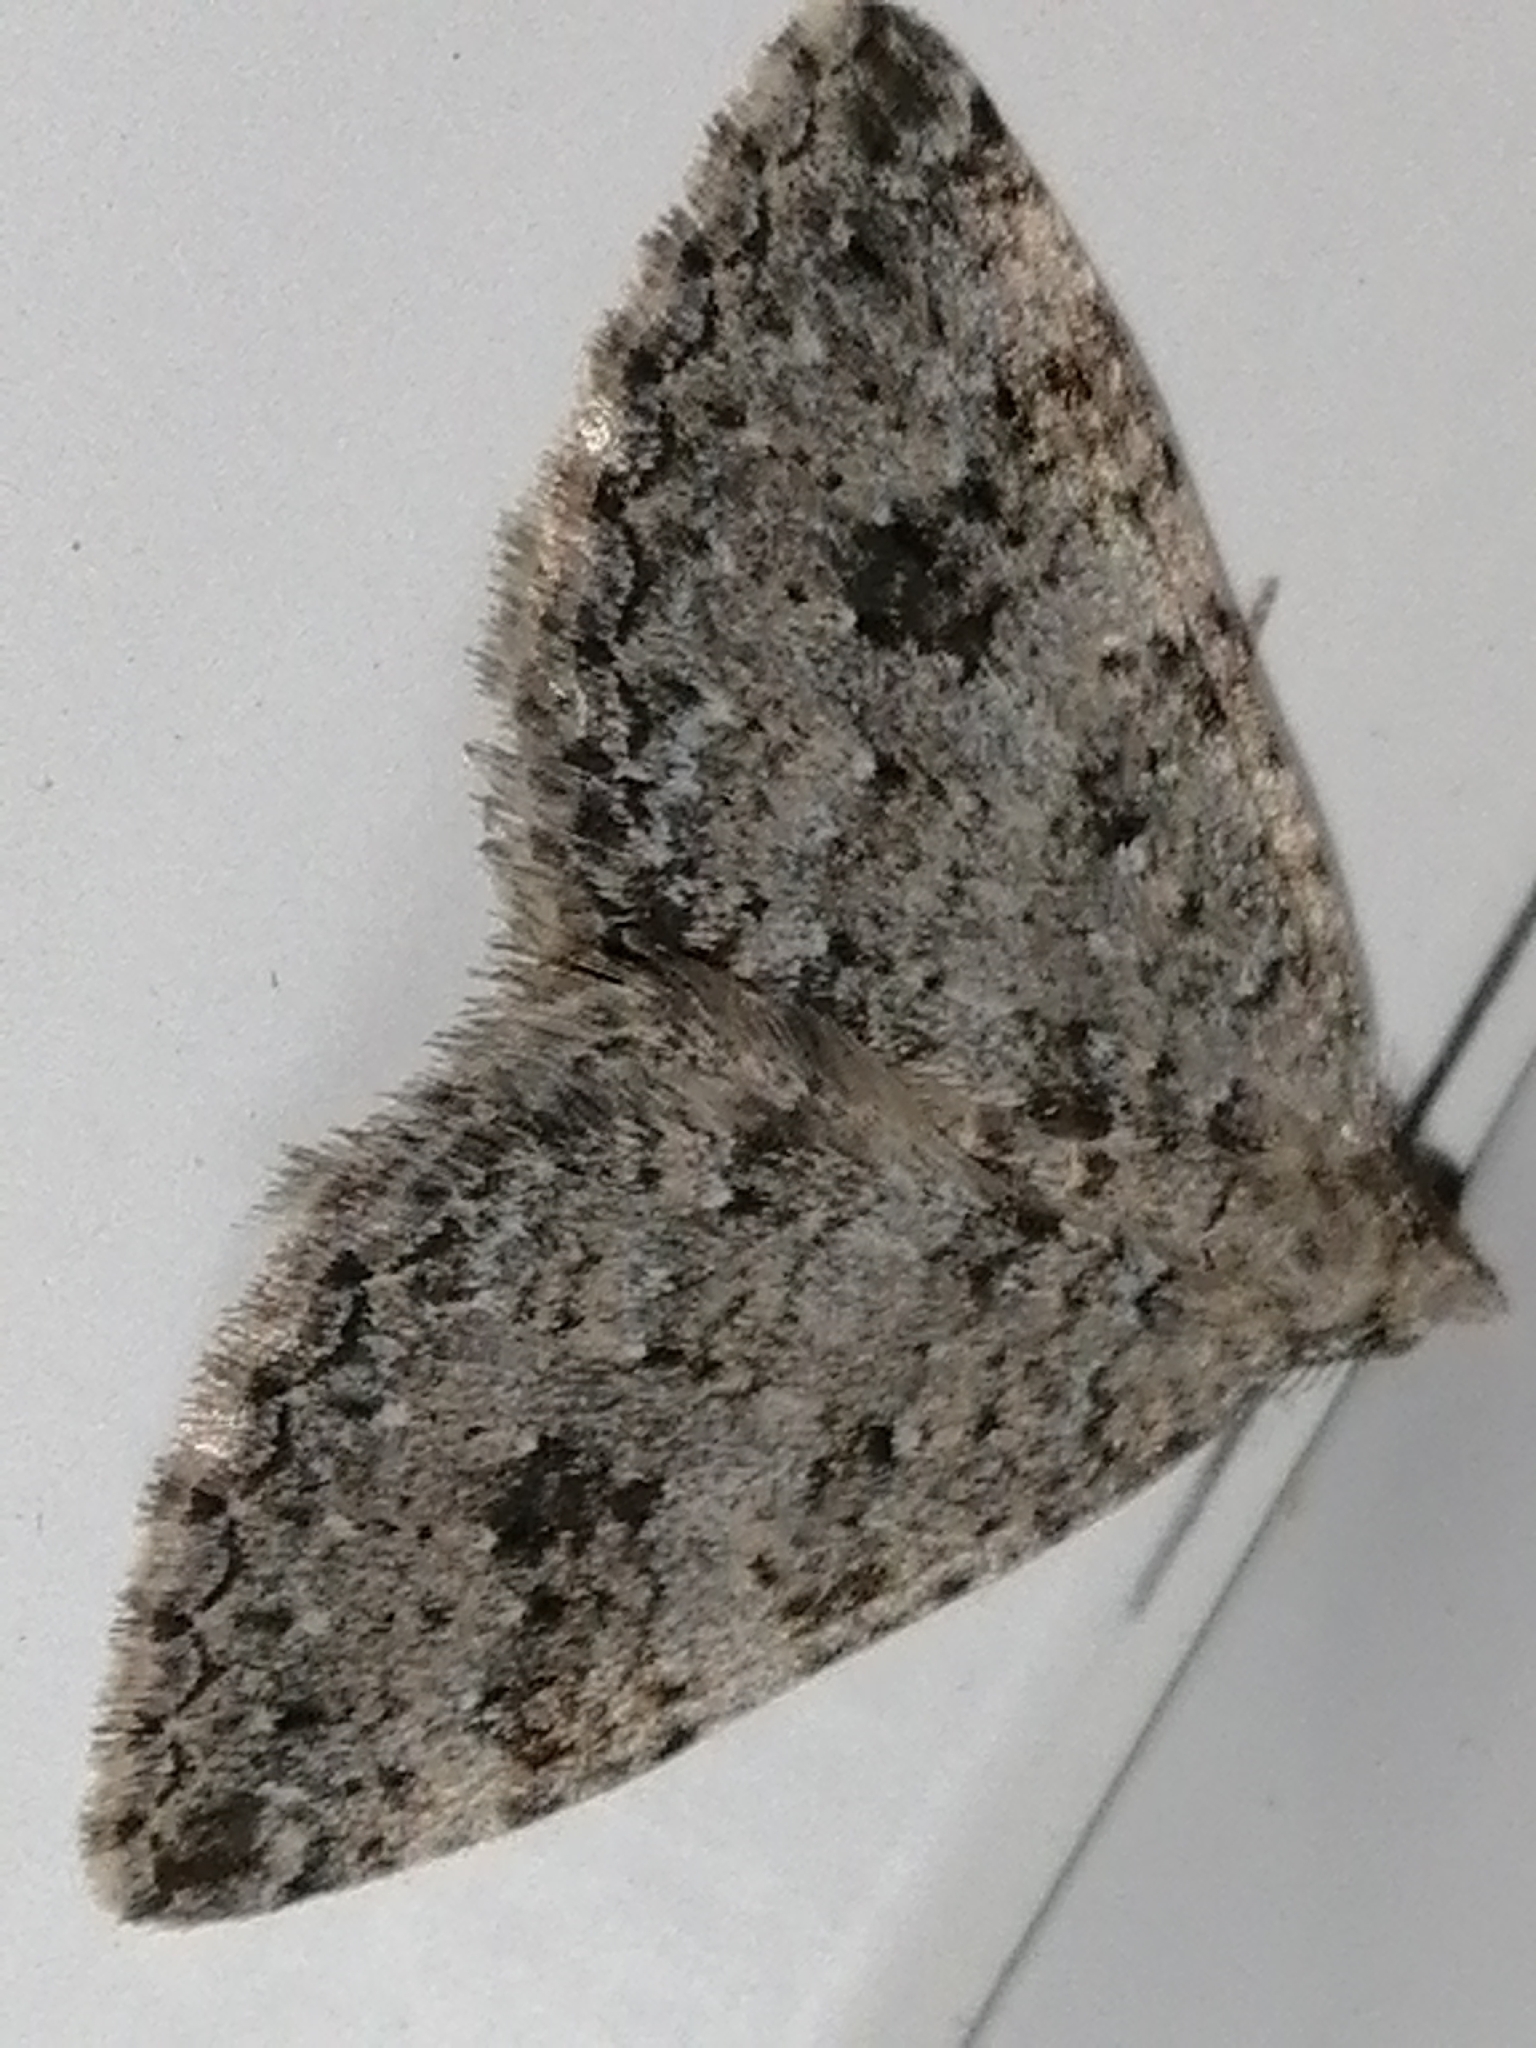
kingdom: Animalia
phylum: Arthropoda
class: Insecta
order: Lepidoptera
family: Geometridae
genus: Helastia
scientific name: Helastia corcularia
